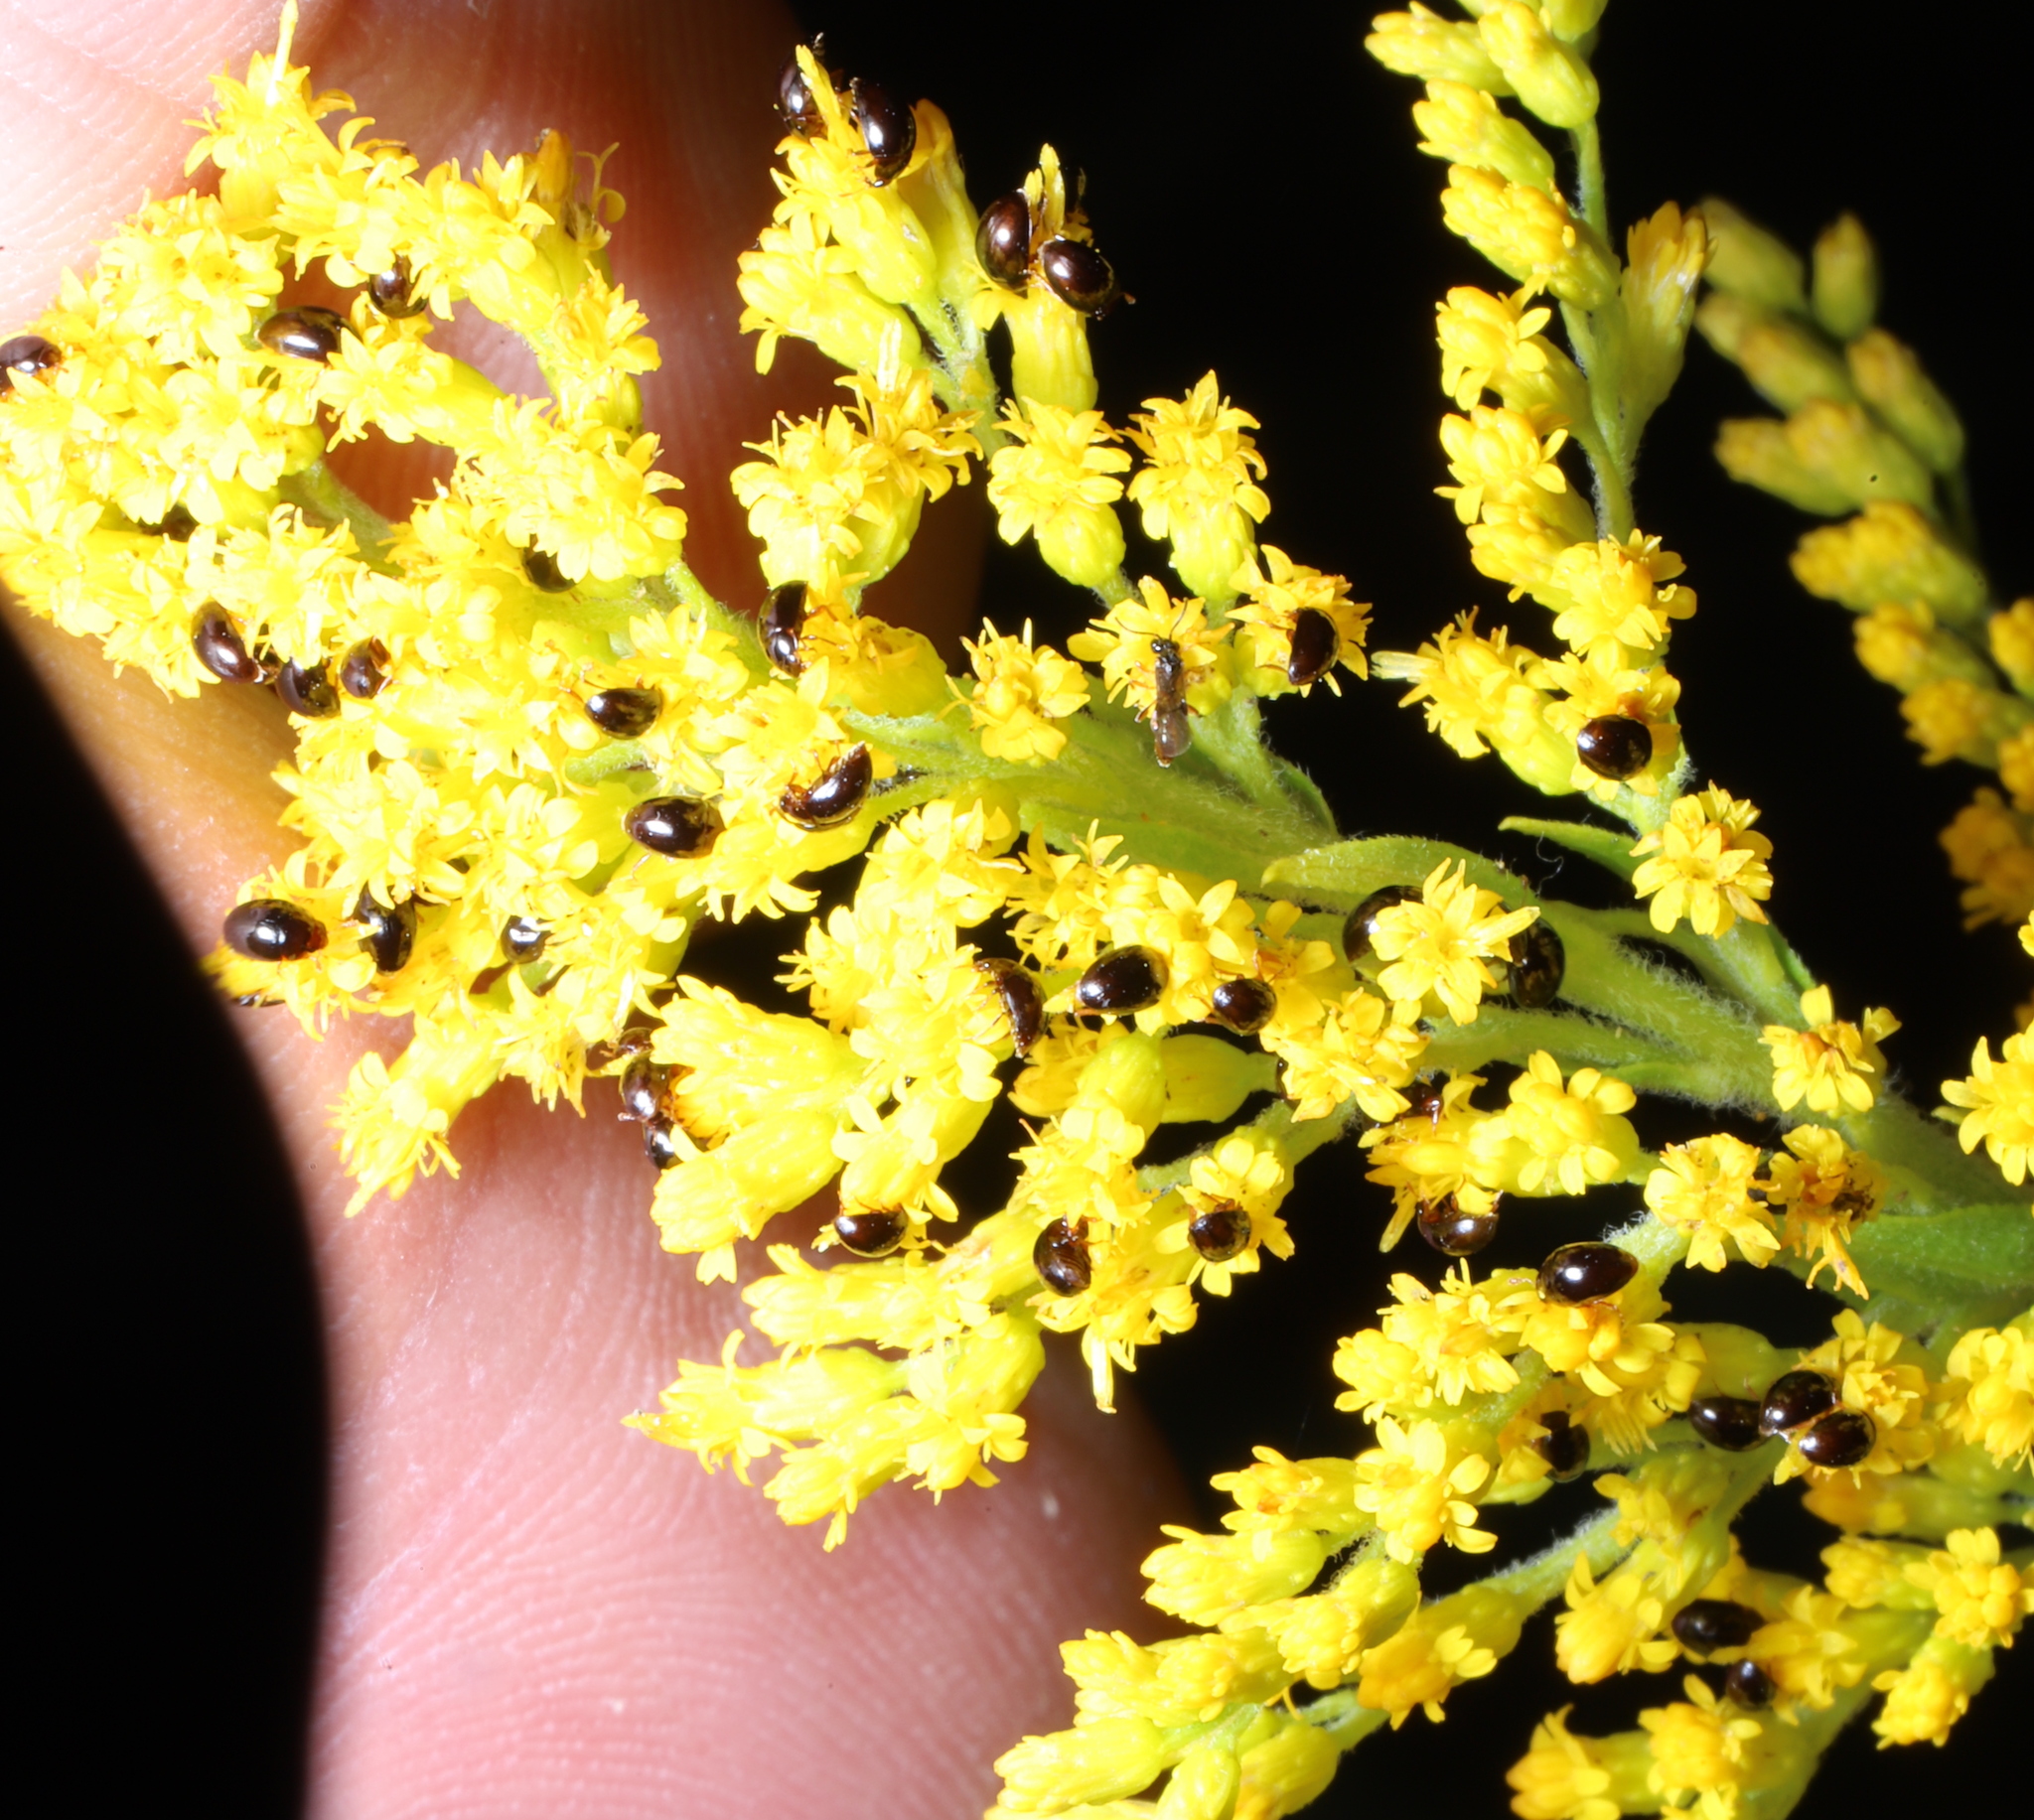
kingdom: Animalia
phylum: Arthropoda
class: Insecta
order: Lepidoptera
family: Gracillariidae
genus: Phyllocnistis
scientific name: Phyllocnistis populiella
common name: Aspen serpentine leafminer moth
